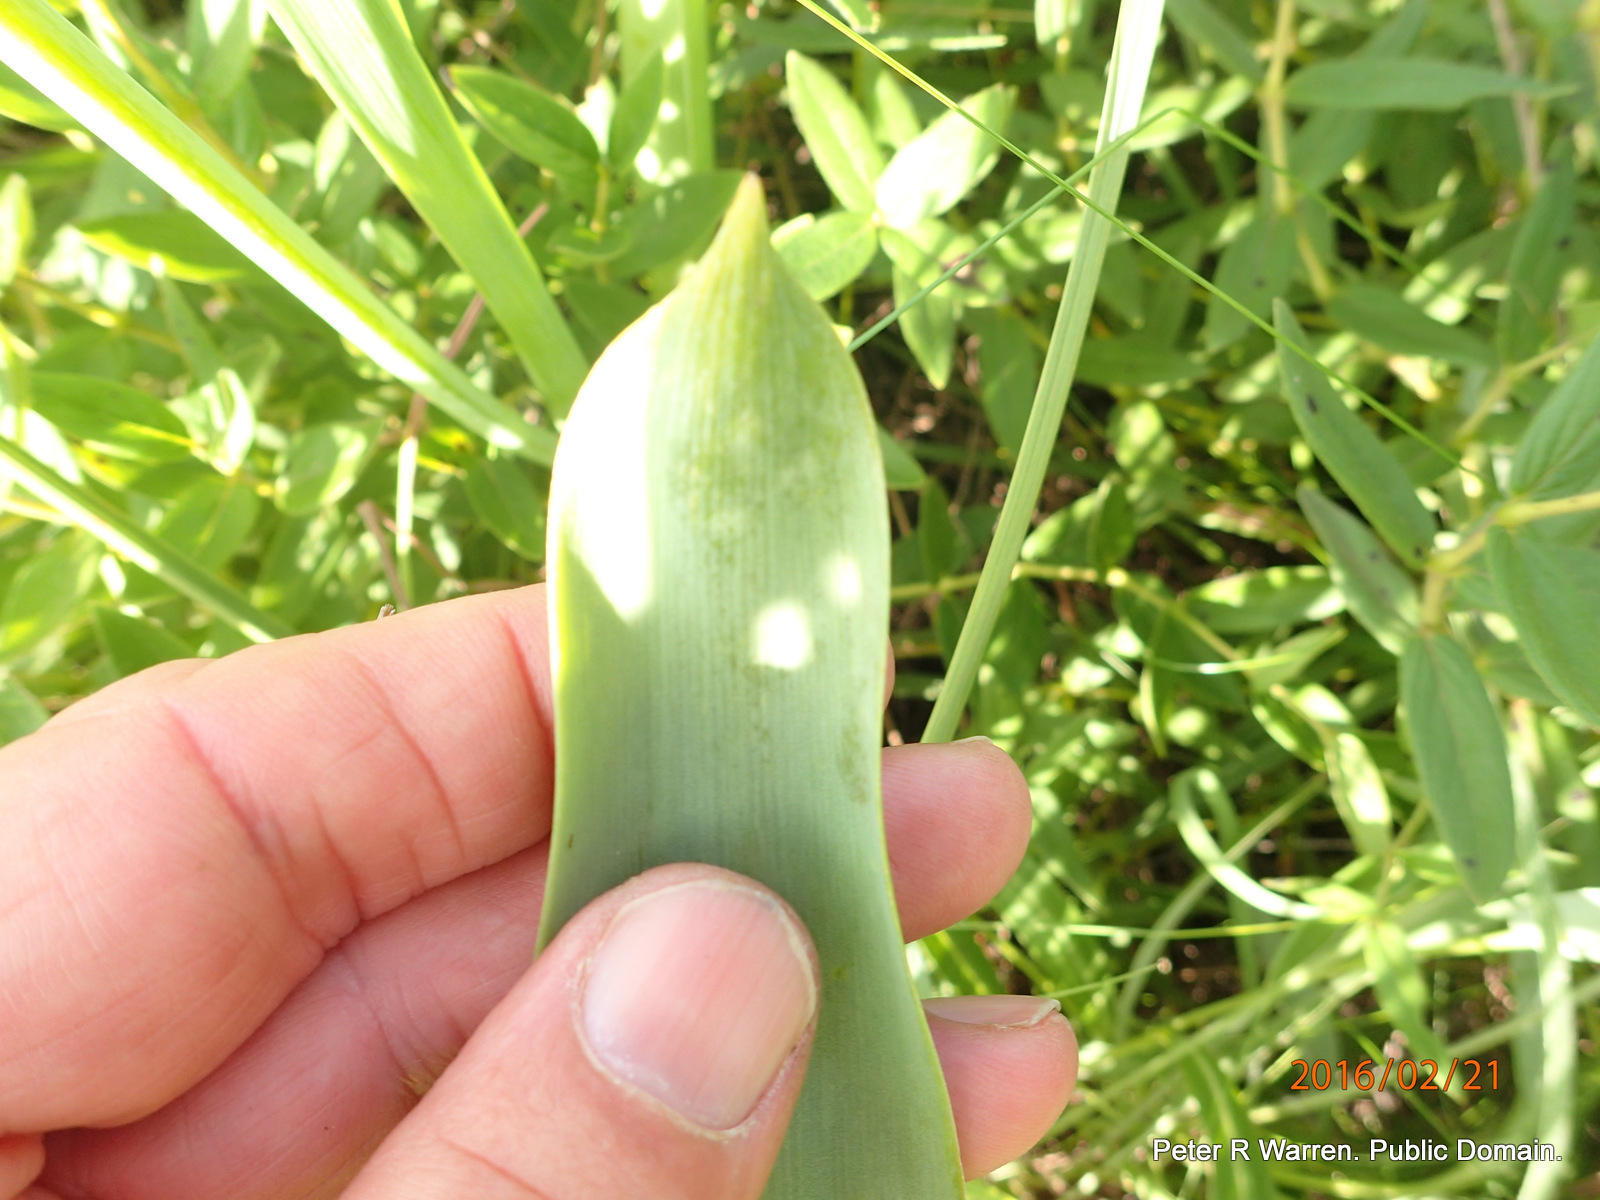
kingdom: Plantae
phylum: Tracheophyta
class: Liliopsida
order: Asparagales
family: Asparagaceae
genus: Ornithogalum
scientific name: Ornithogalum candicans
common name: Summer-hyacinth
